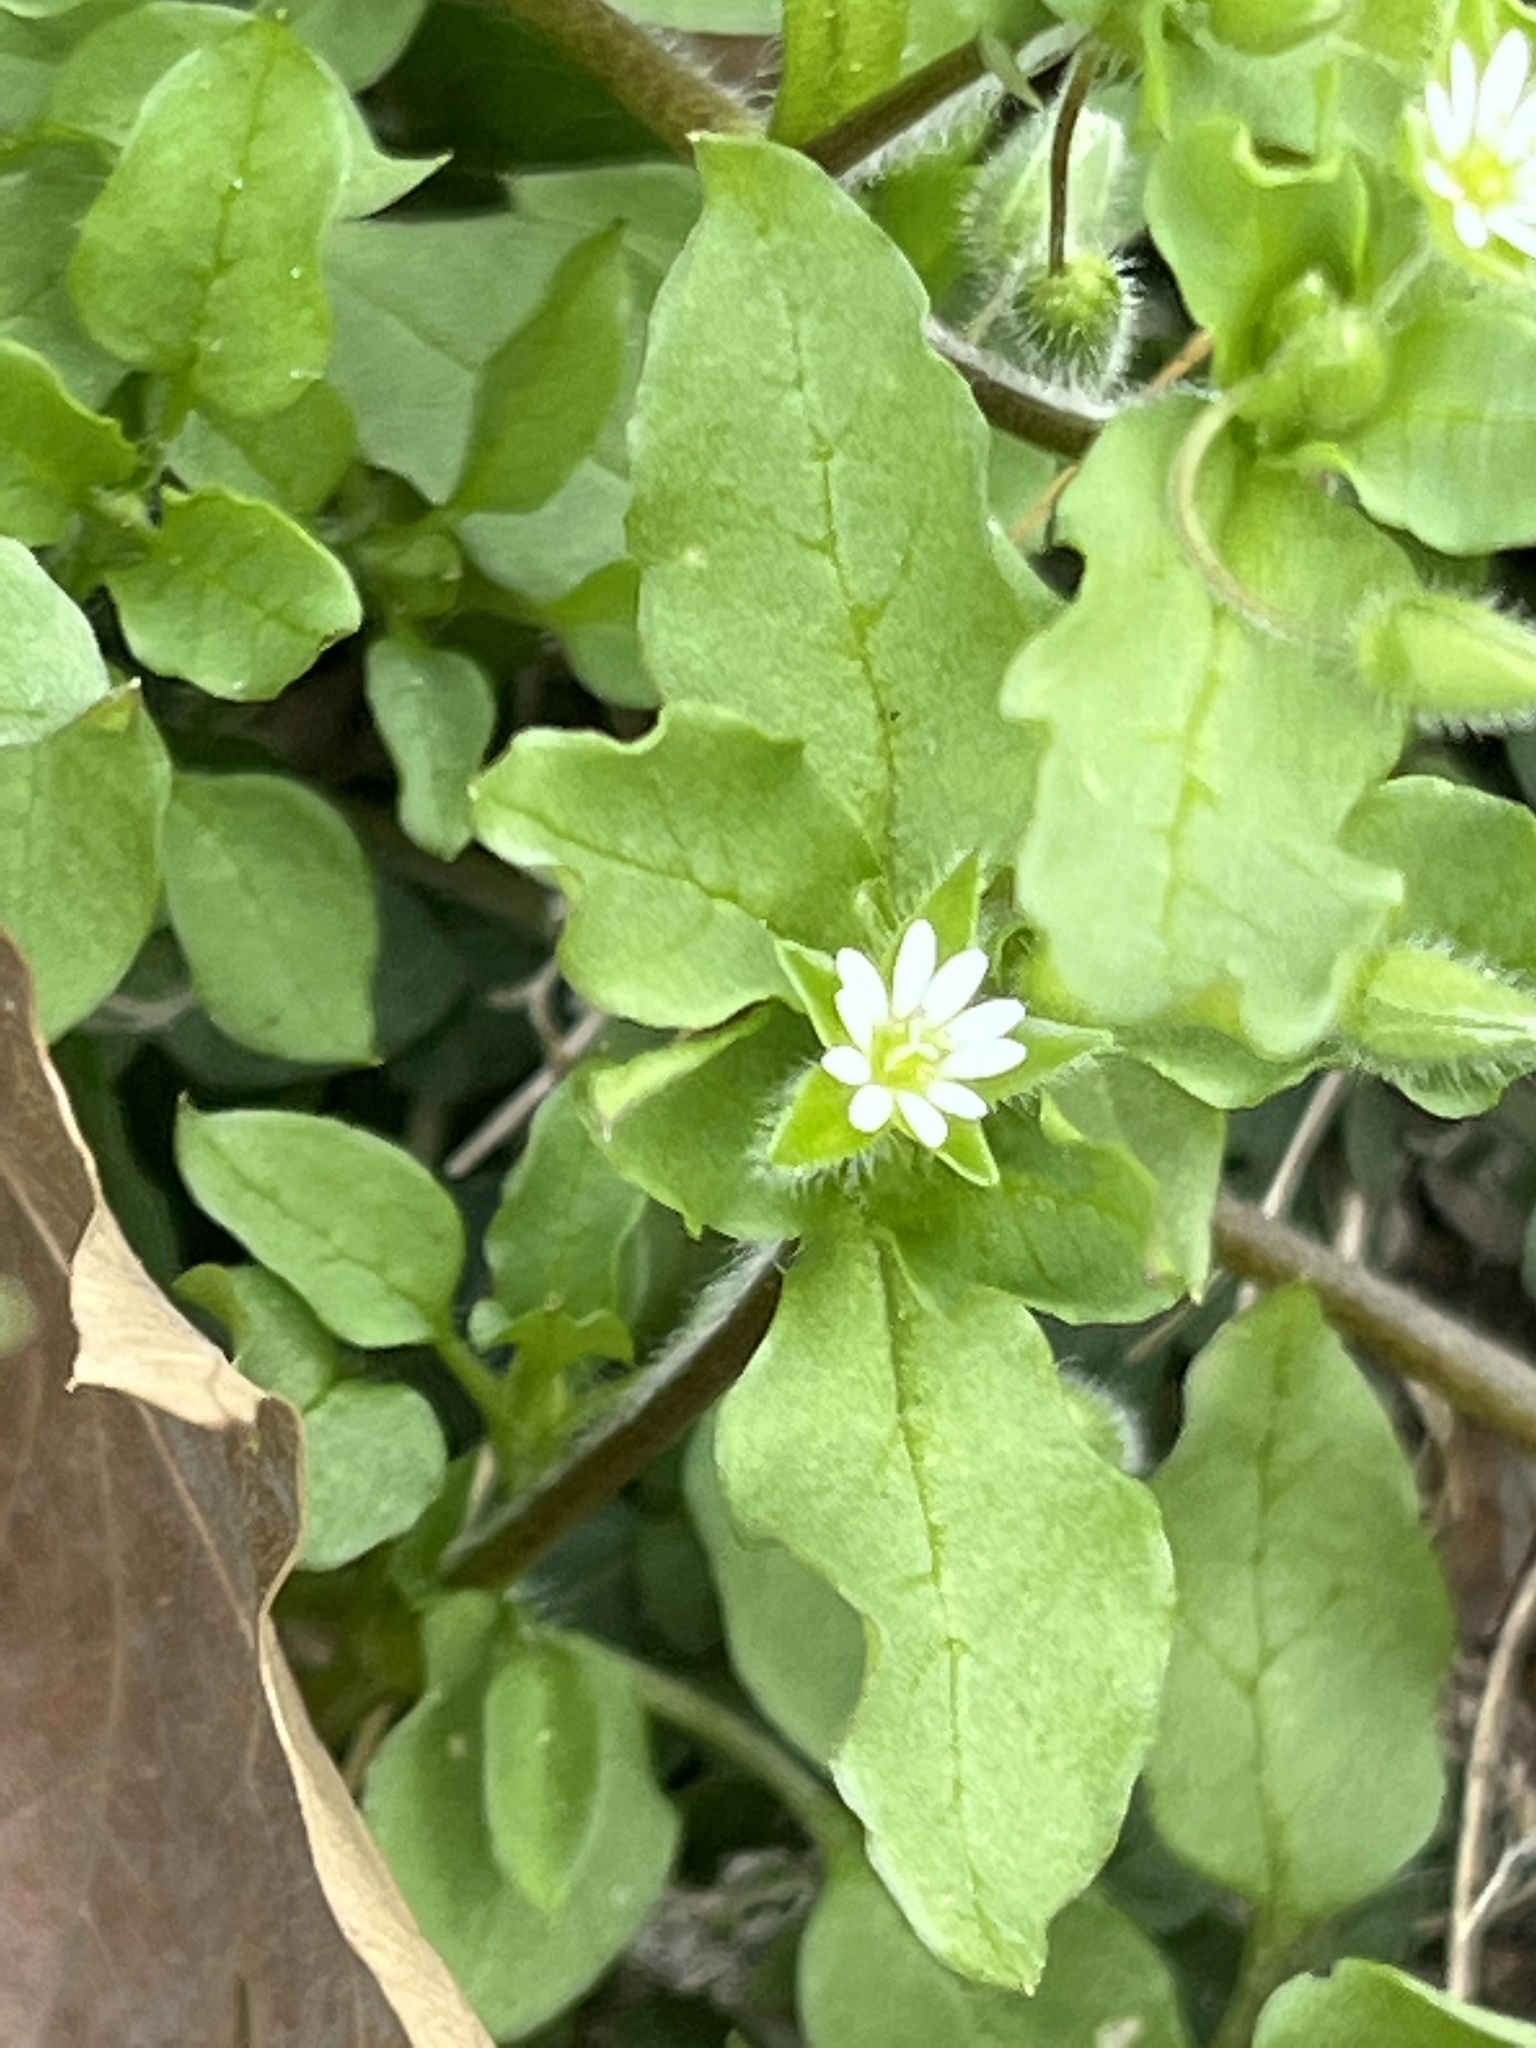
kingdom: Plantae
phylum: Tracheophyta
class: Magnoliopsida
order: Caryophyllales
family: Caryophyllaceae
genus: Stellaria
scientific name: Stellaria media
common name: Common chickweed
